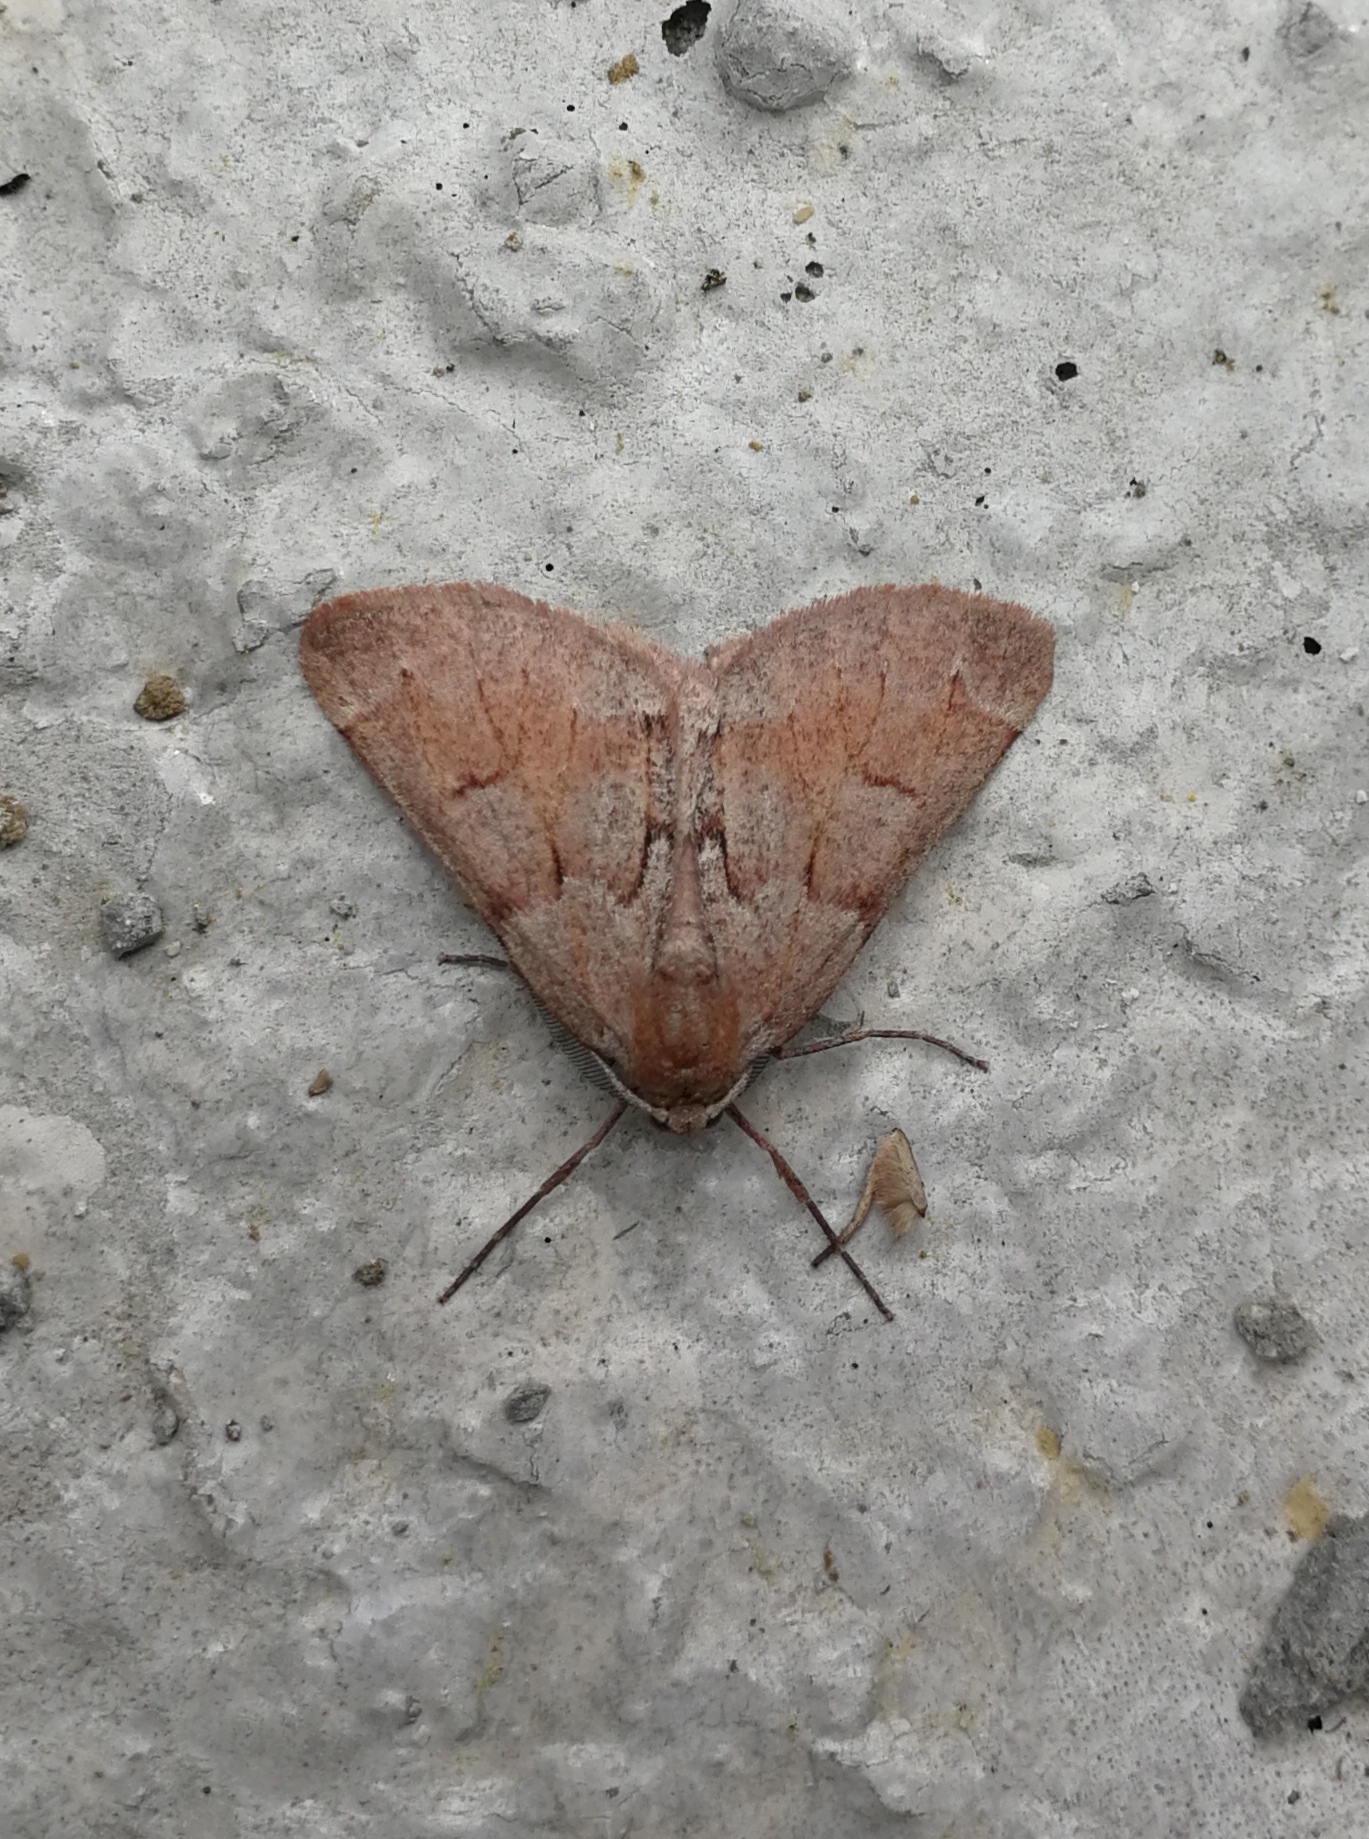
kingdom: Animalia
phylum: Arthropoda
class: Insecta
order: Lepidoptera
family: Geometridae
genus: Adalbertia
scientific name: Adalbertia castiliaria
